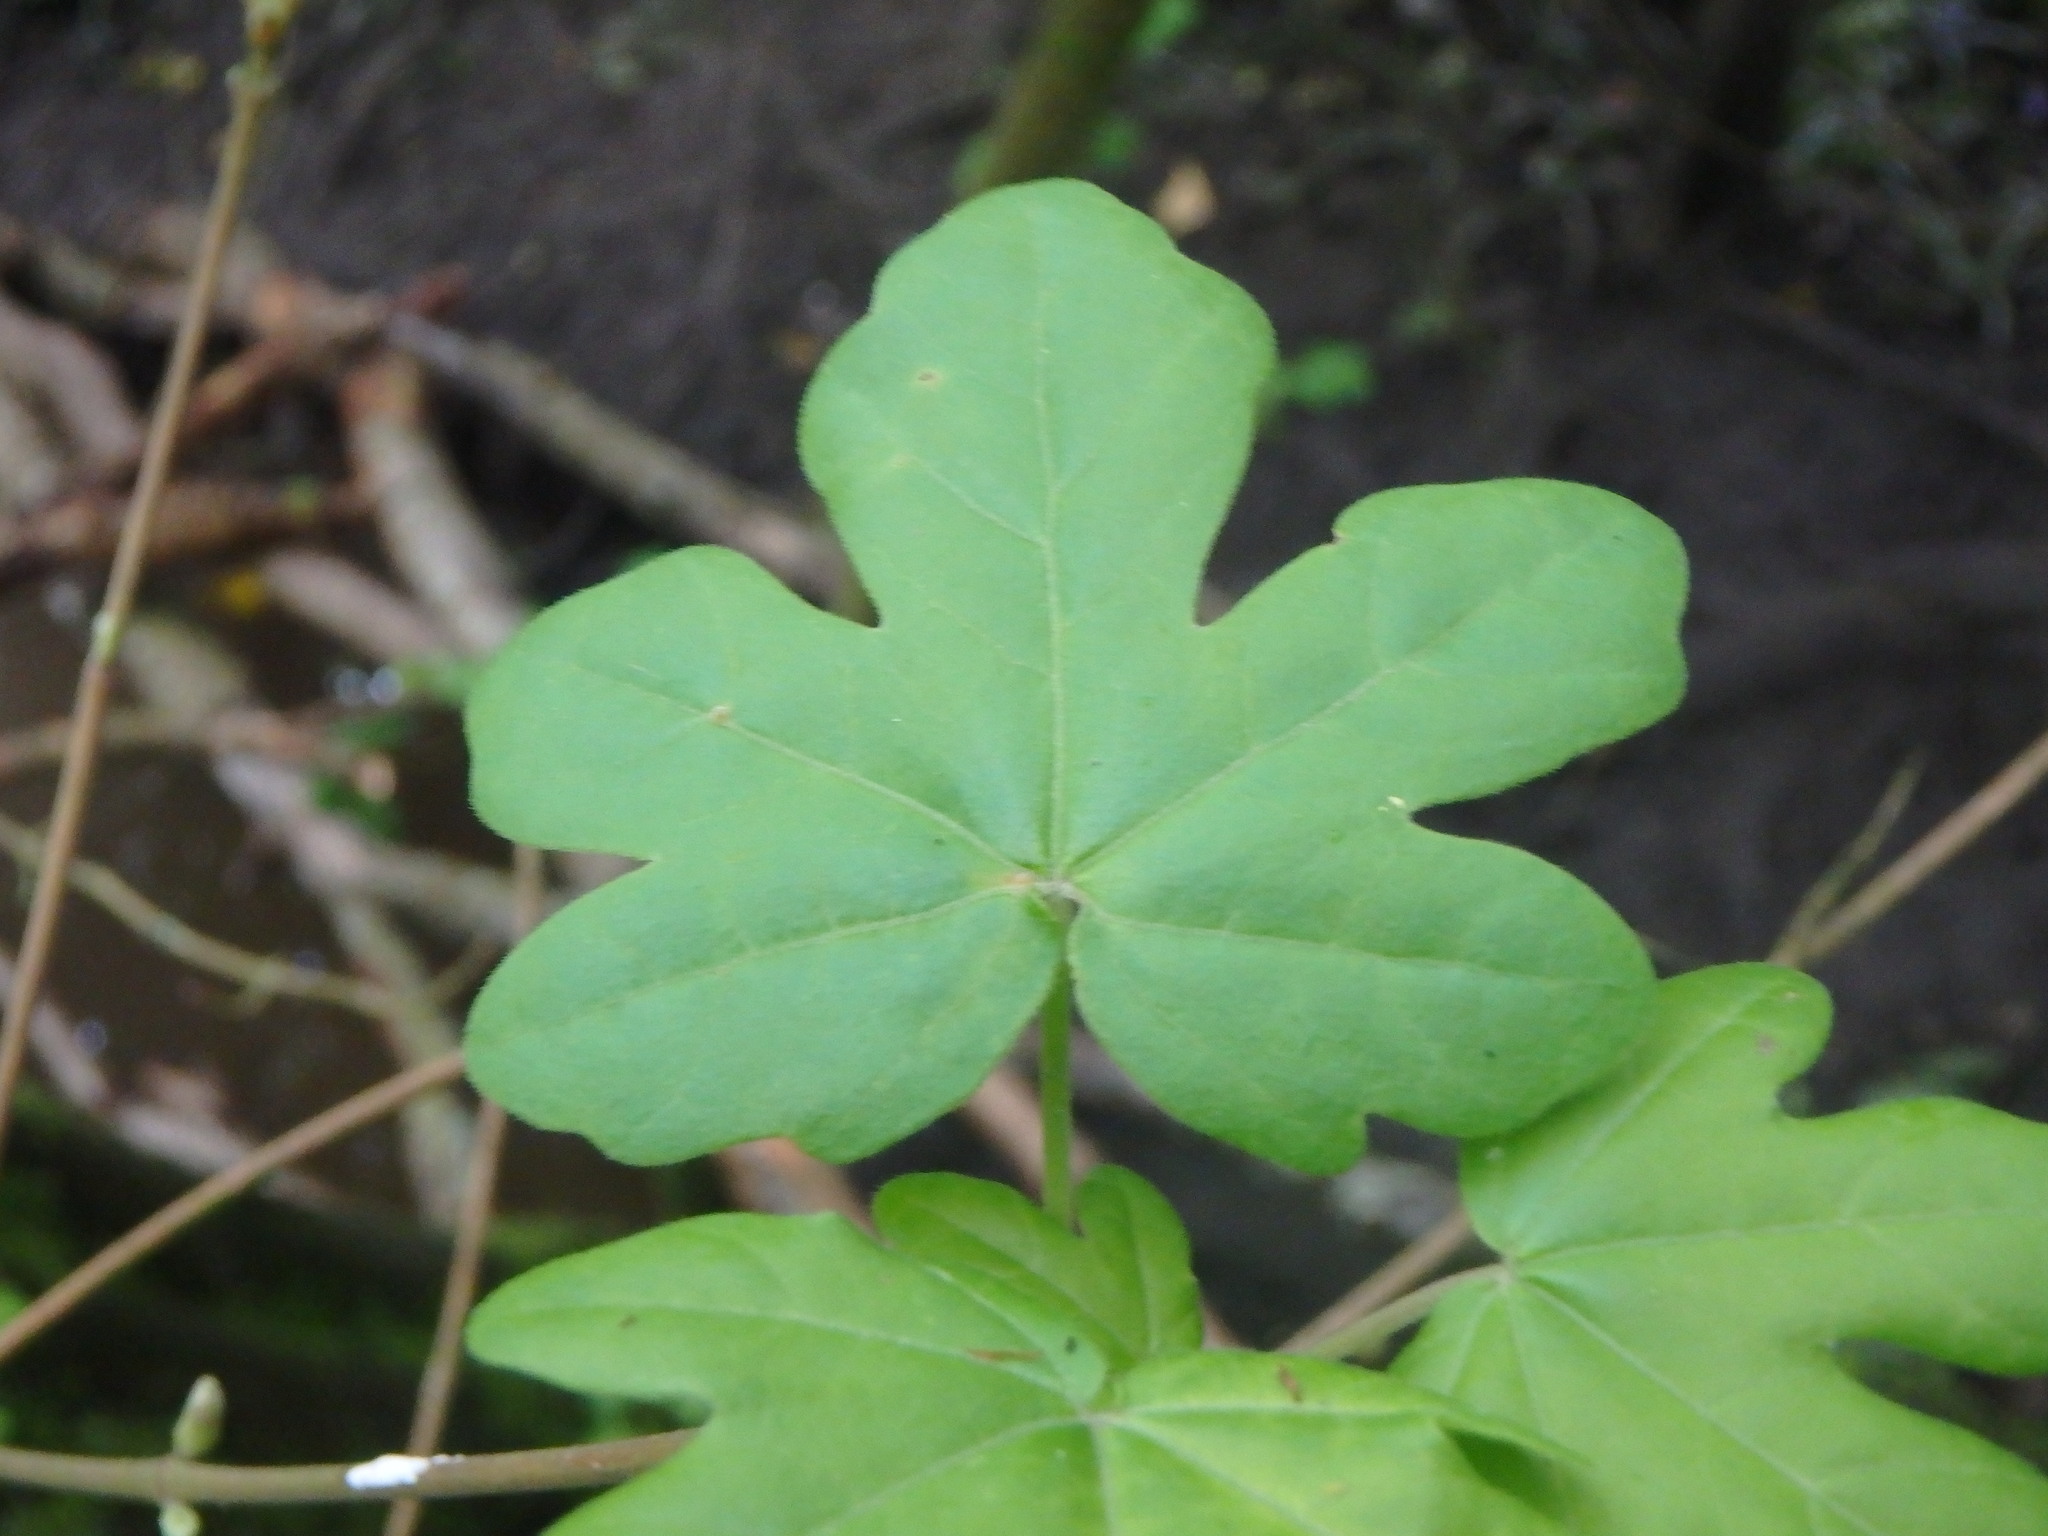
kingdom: Plantae
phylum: Tracheophyta
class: Magnoliopsida
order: Sapindales
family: Sapindaceae
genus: Acer
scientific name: Acer campestre
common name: Field maple
